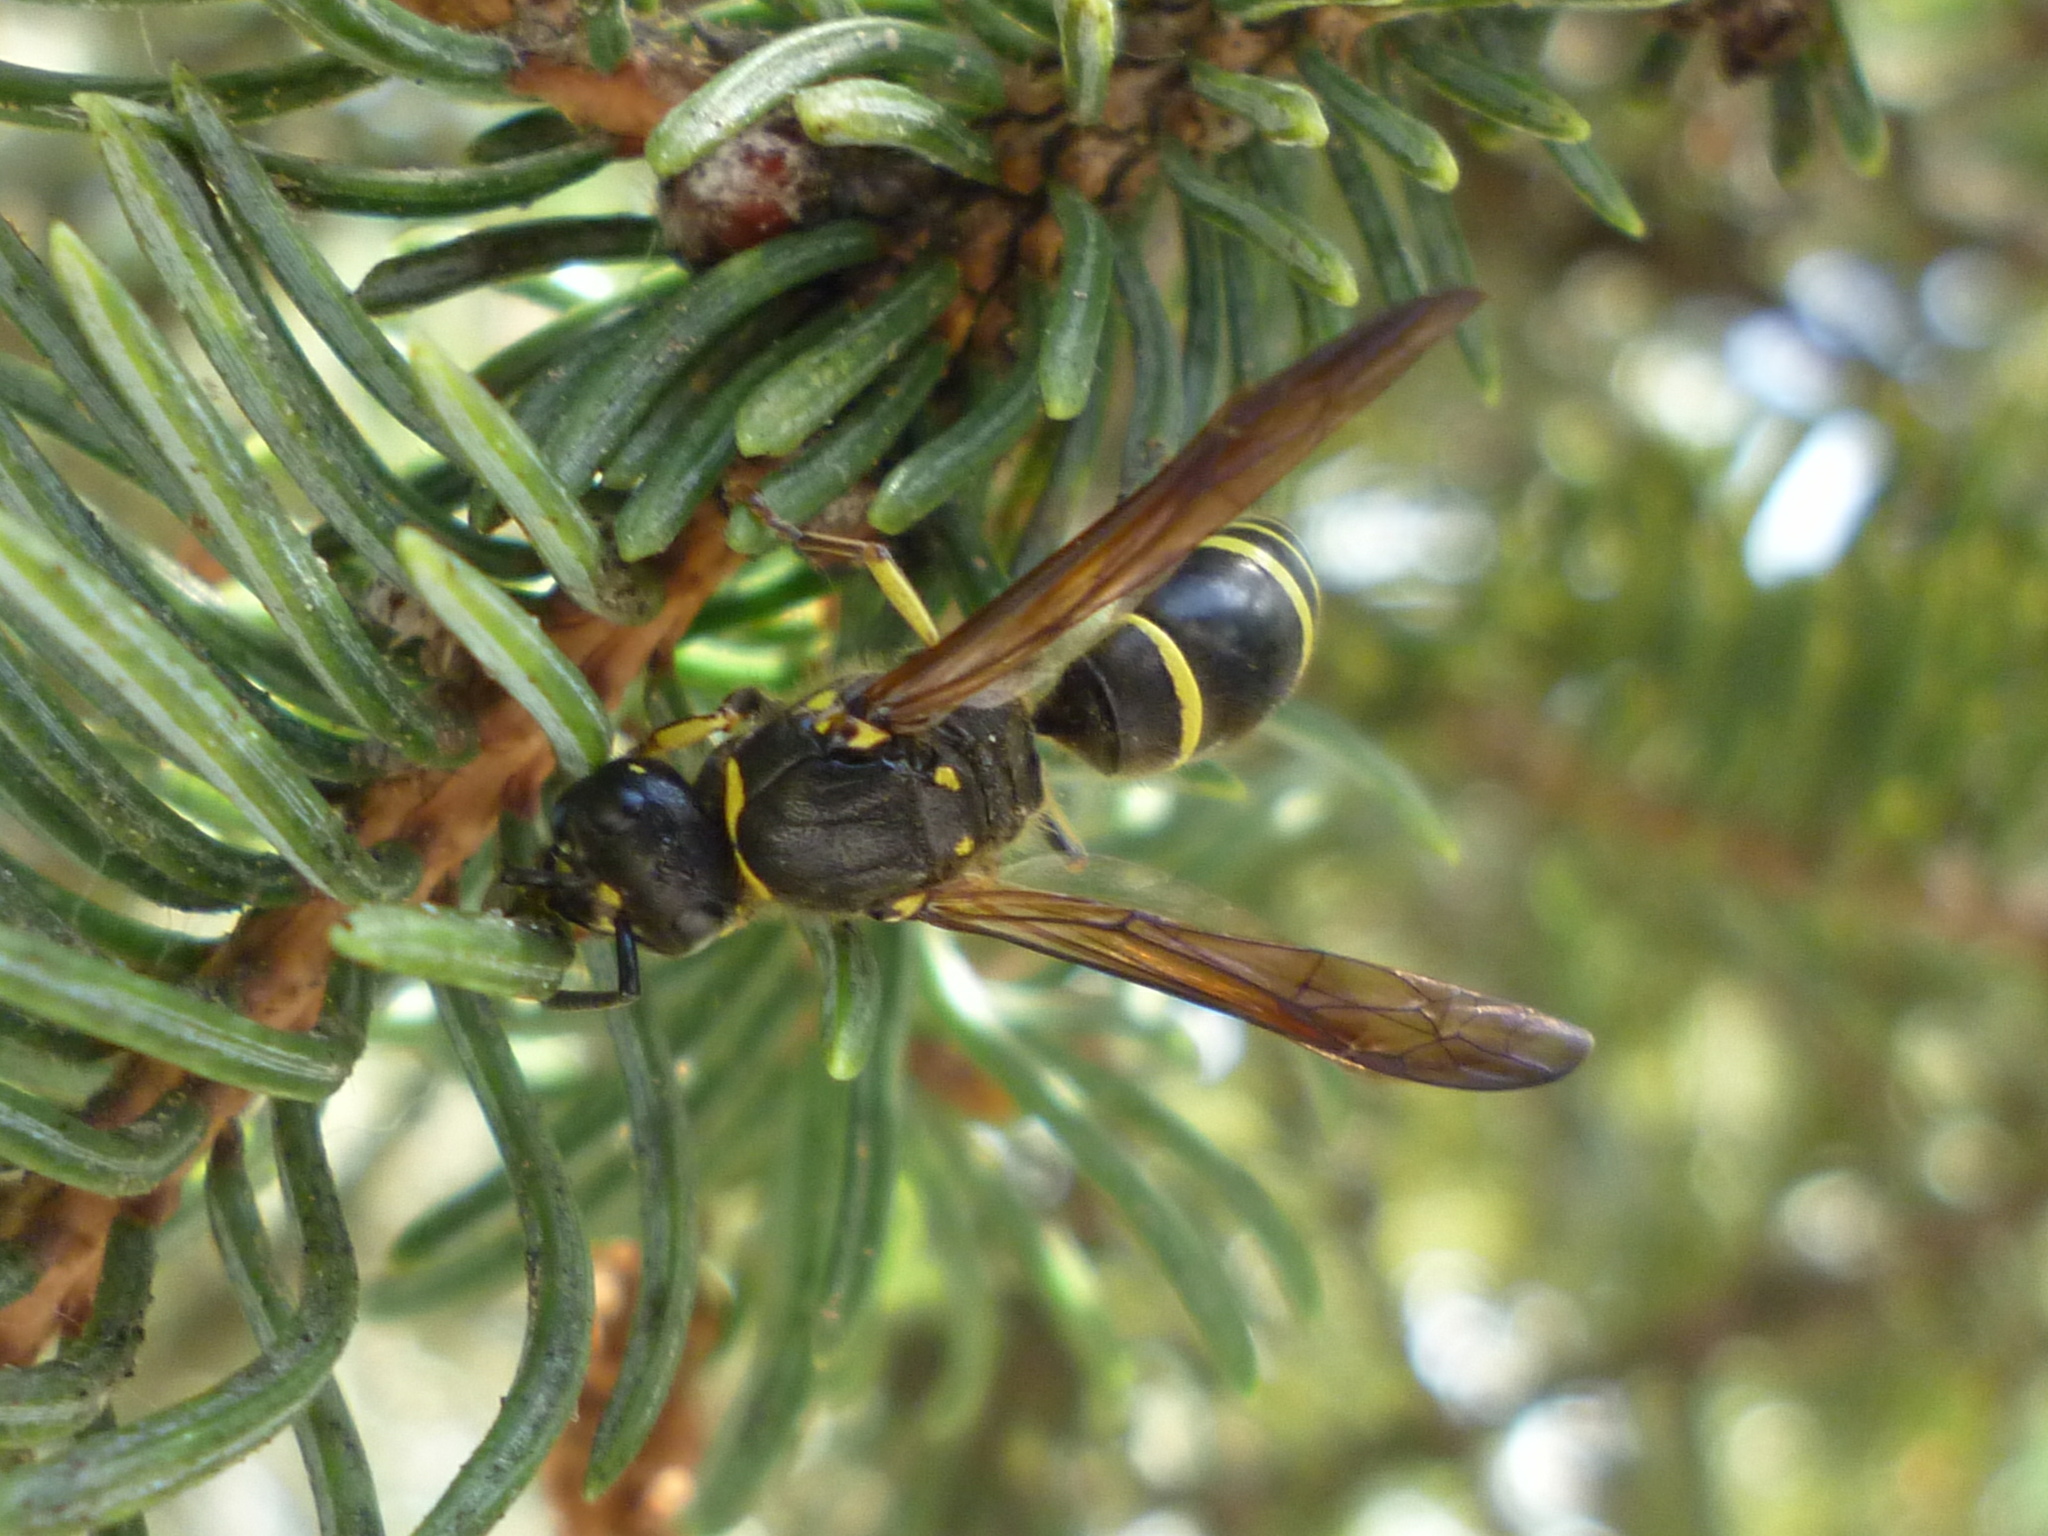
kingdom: Animalia
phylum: Arthropoda
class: Insecta
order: Hymenoptera
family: Vespidae
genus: Ancistrocerus
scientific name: Ancistrocerus
